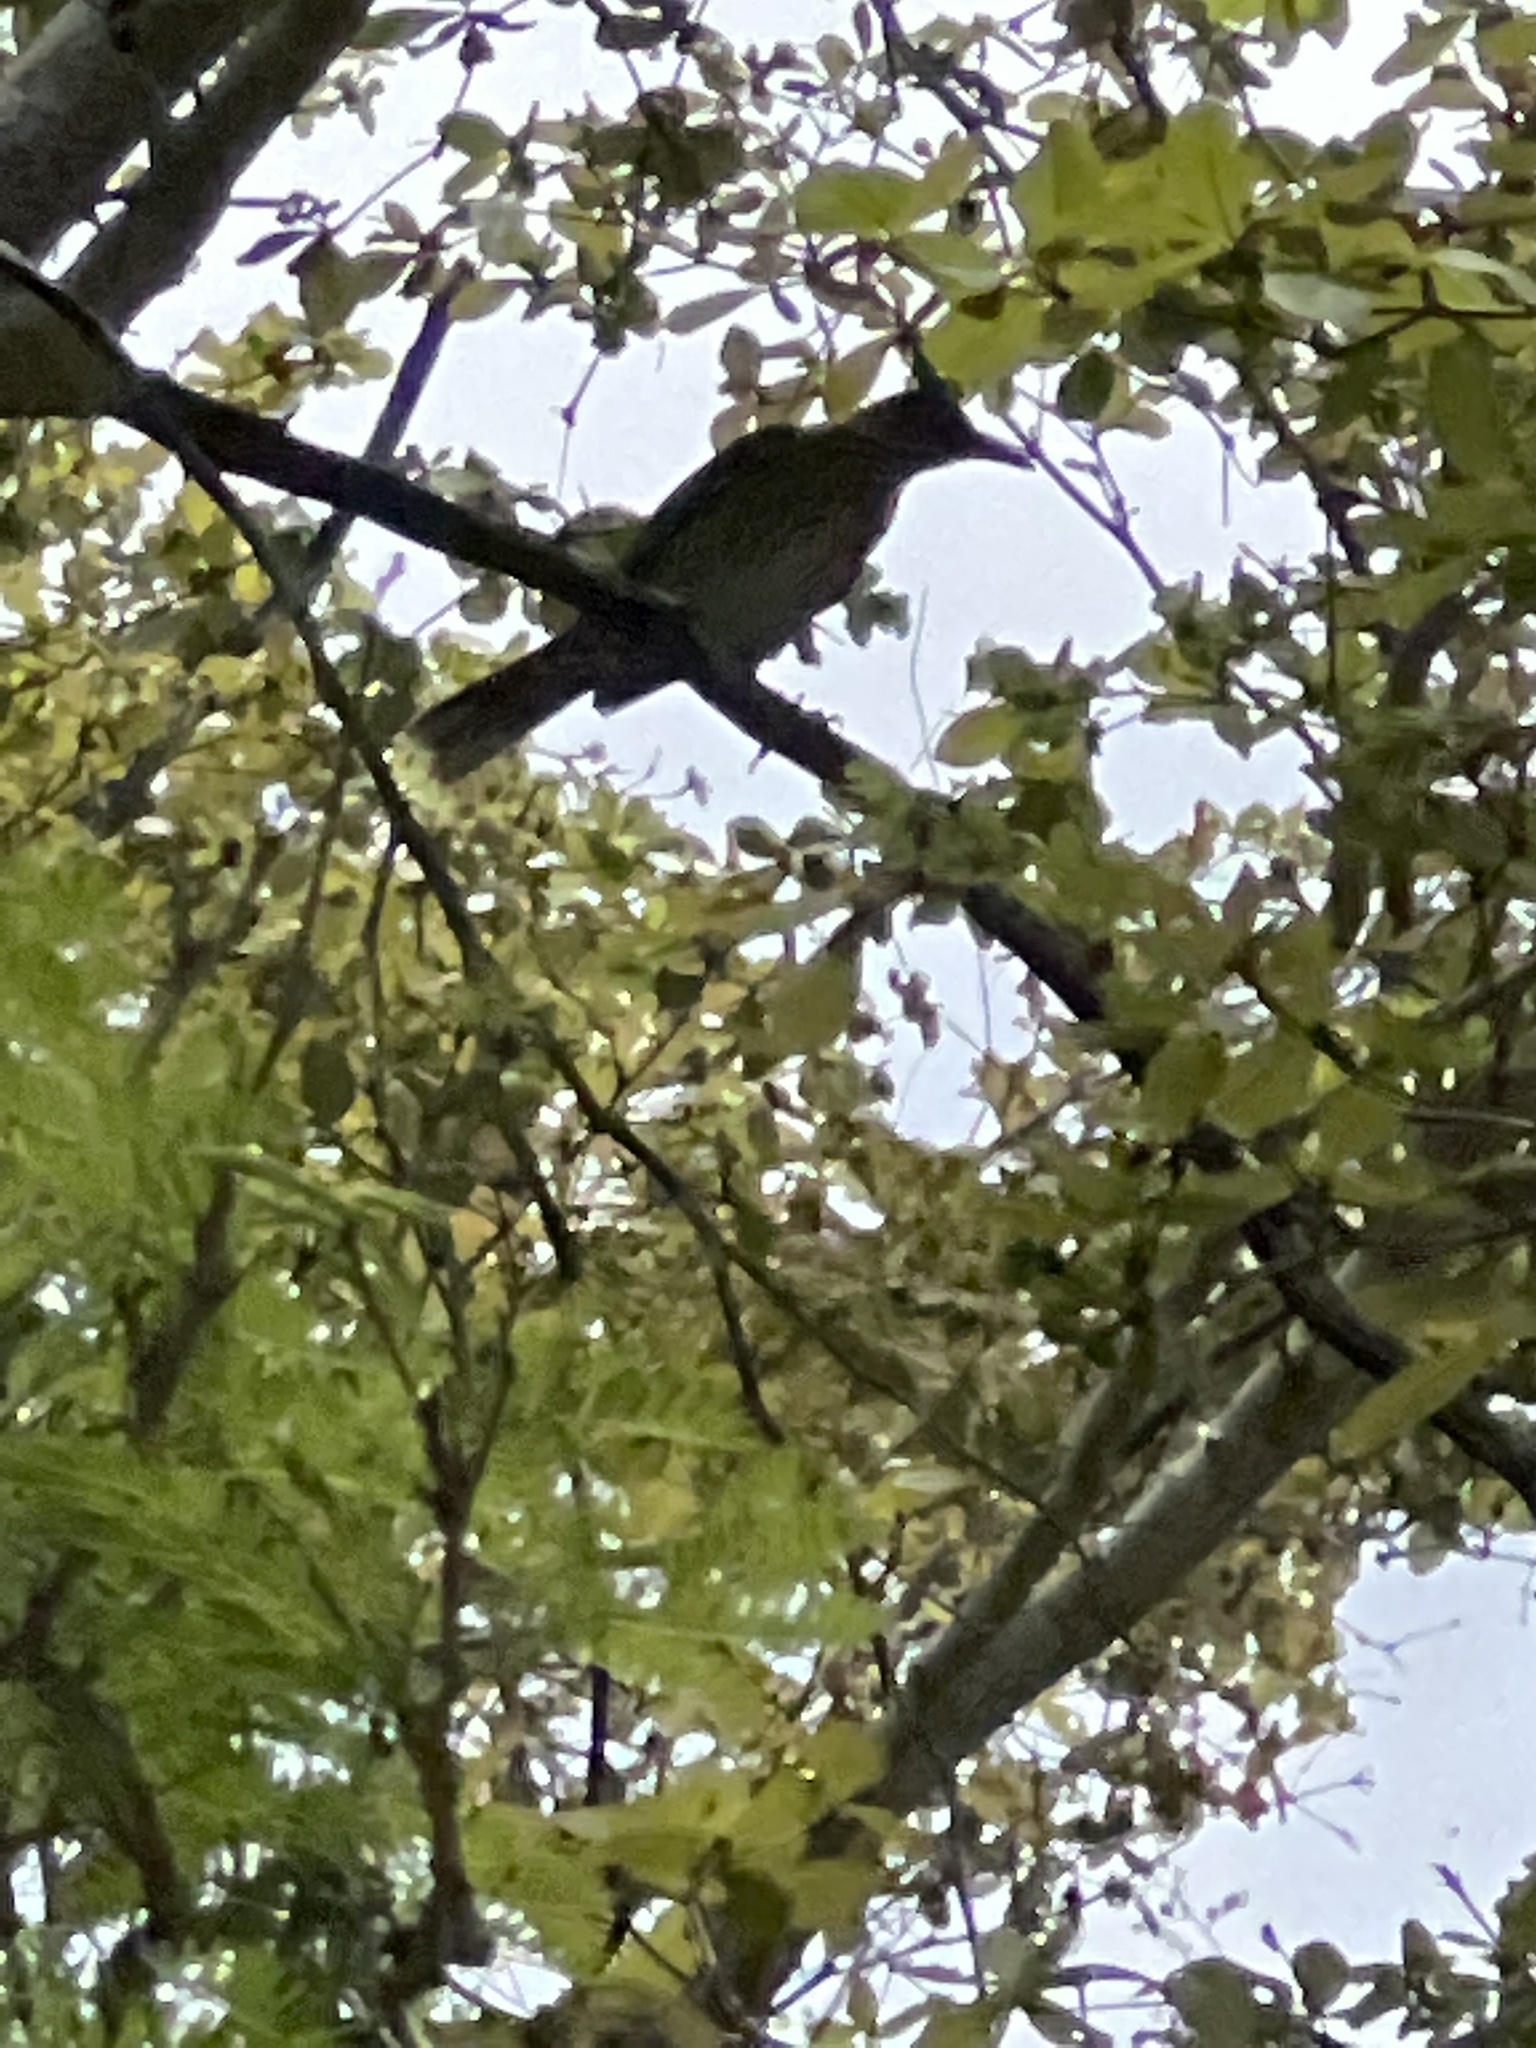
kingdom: Animalia
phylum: Chordata
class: Aves
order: Passeriformes
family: Mimidae
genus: Margarops
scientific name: Margarops fuscatus
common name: Pearly-eyed thrasher
